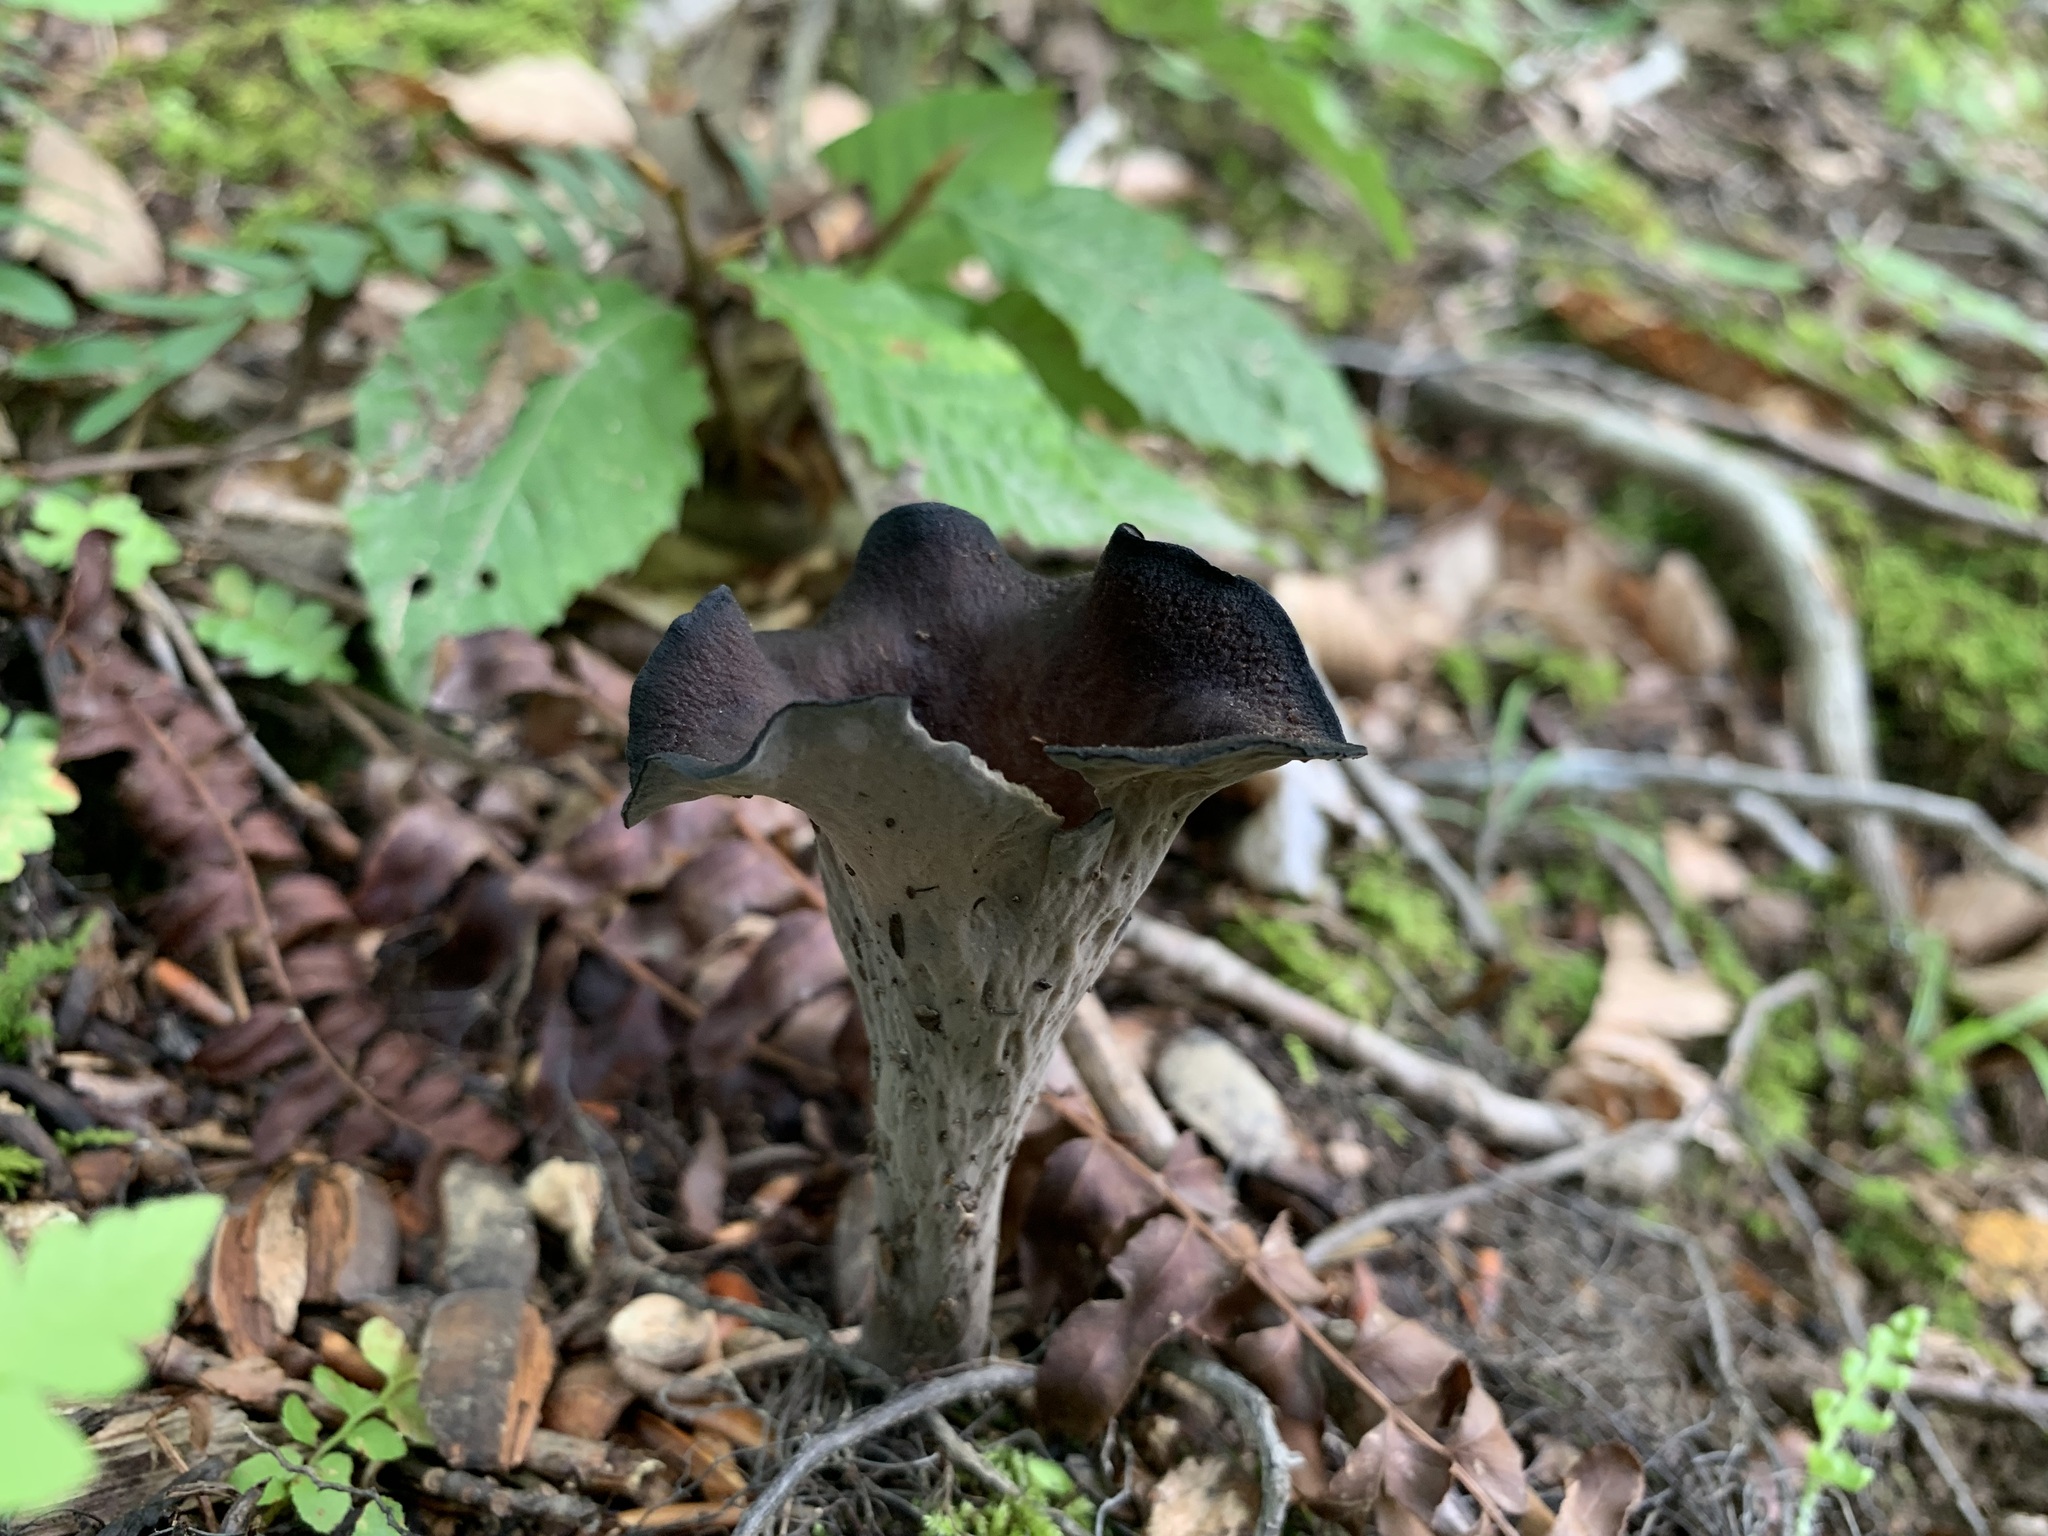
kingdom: Fungi
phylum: Basidiomycota
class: Agaricomycetes
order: Cantharellales
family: Hydnaceae
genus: Craterellus
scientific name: Craterellus cornucopioides
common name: Horn of plenty
